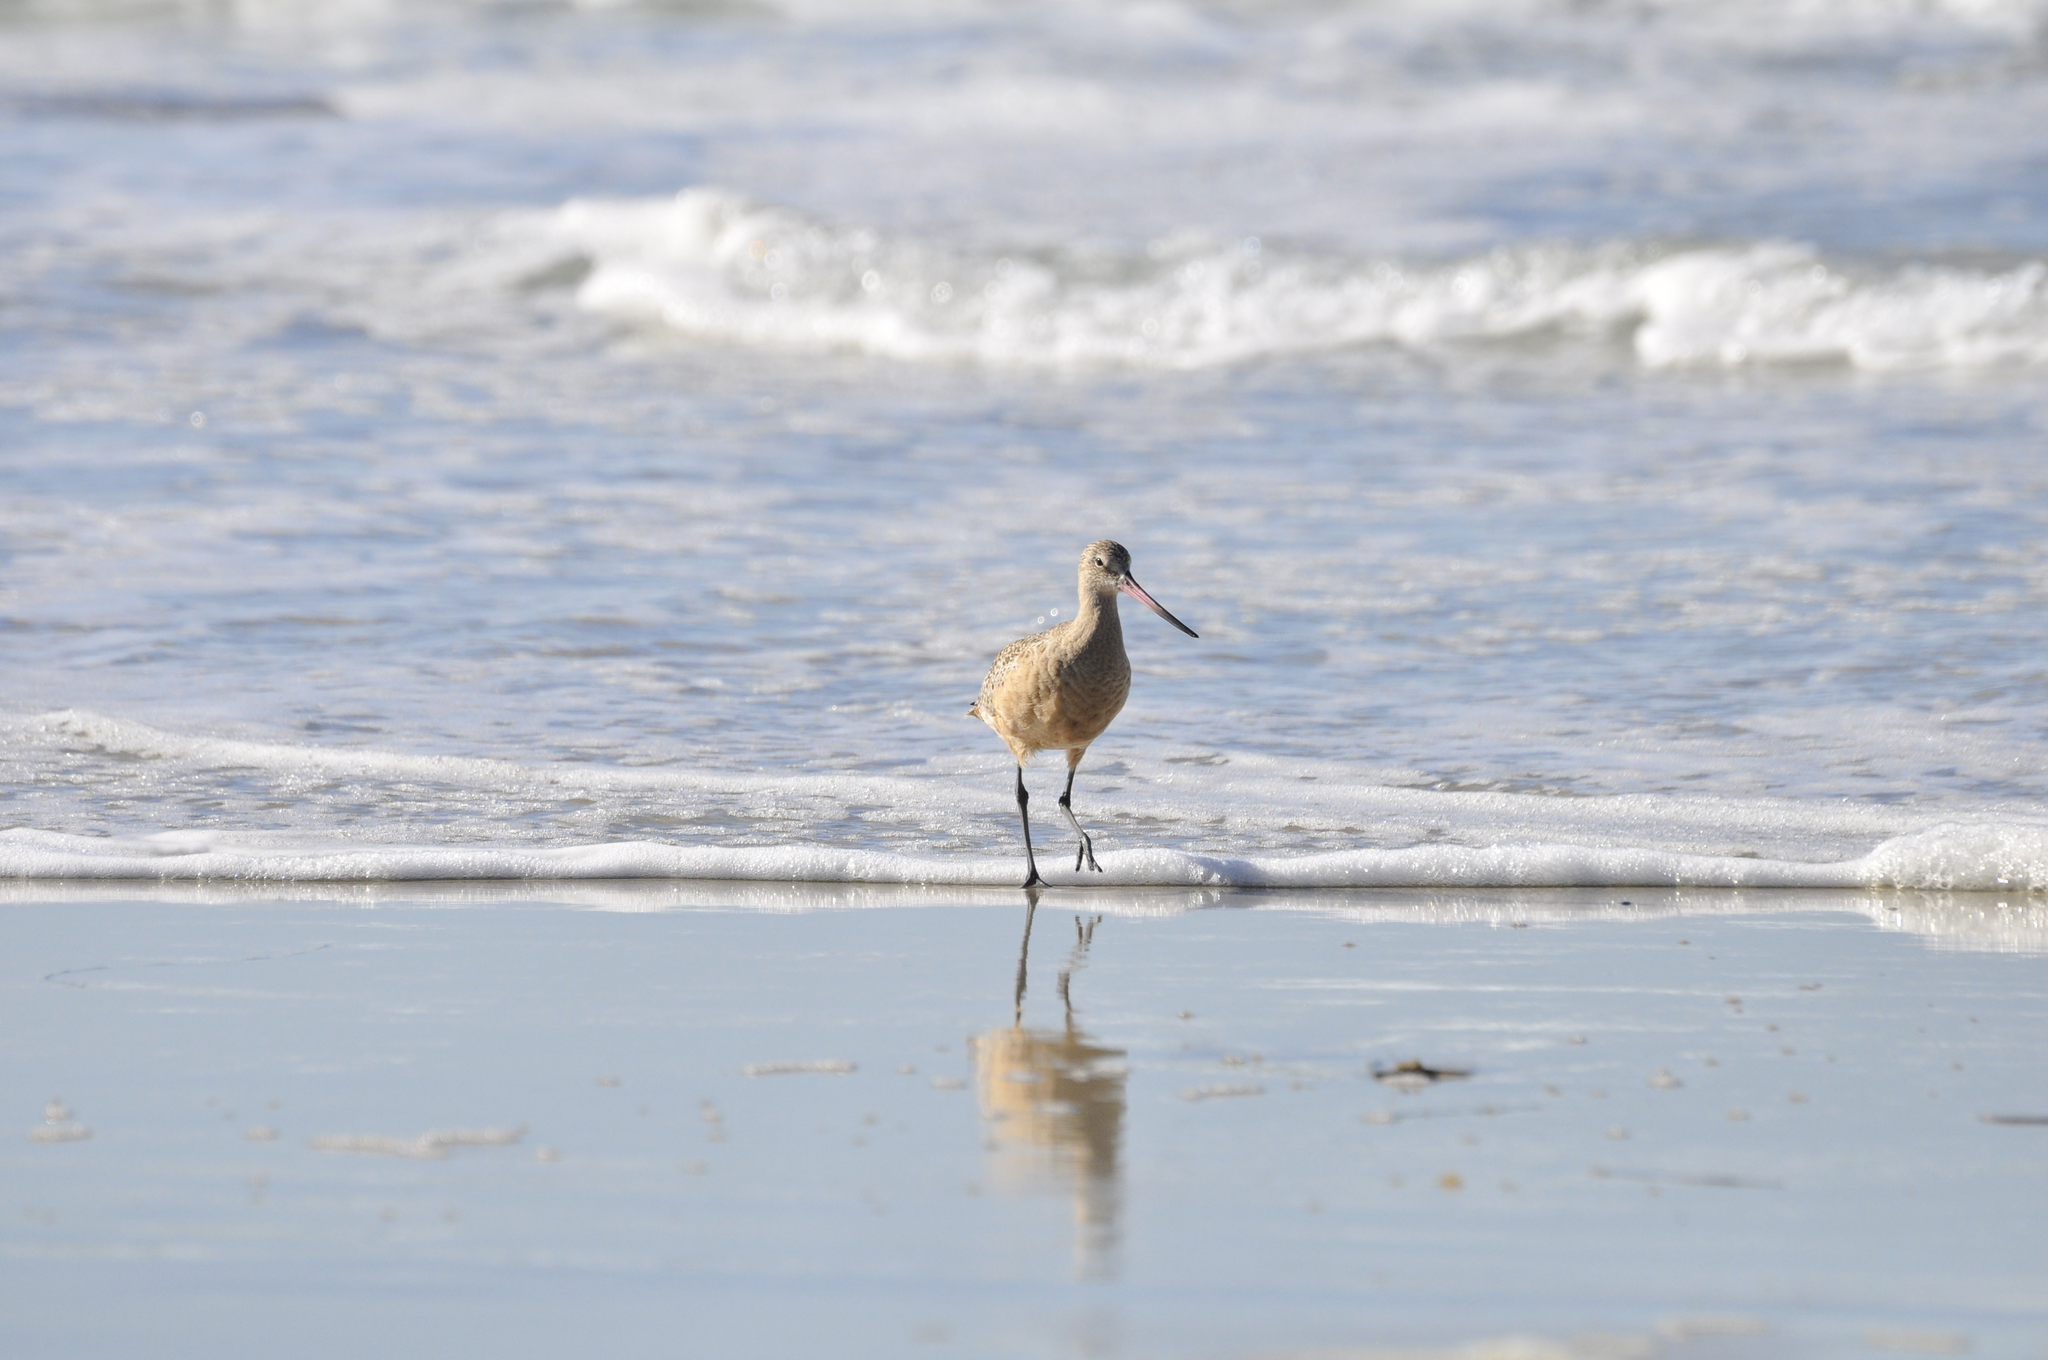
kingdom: Animalia
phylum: Chordata
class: Aves
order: Charadriiformes
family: Scolopacidae
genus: Limosa
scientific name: Limosa fedoa
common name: Marbled godwit
